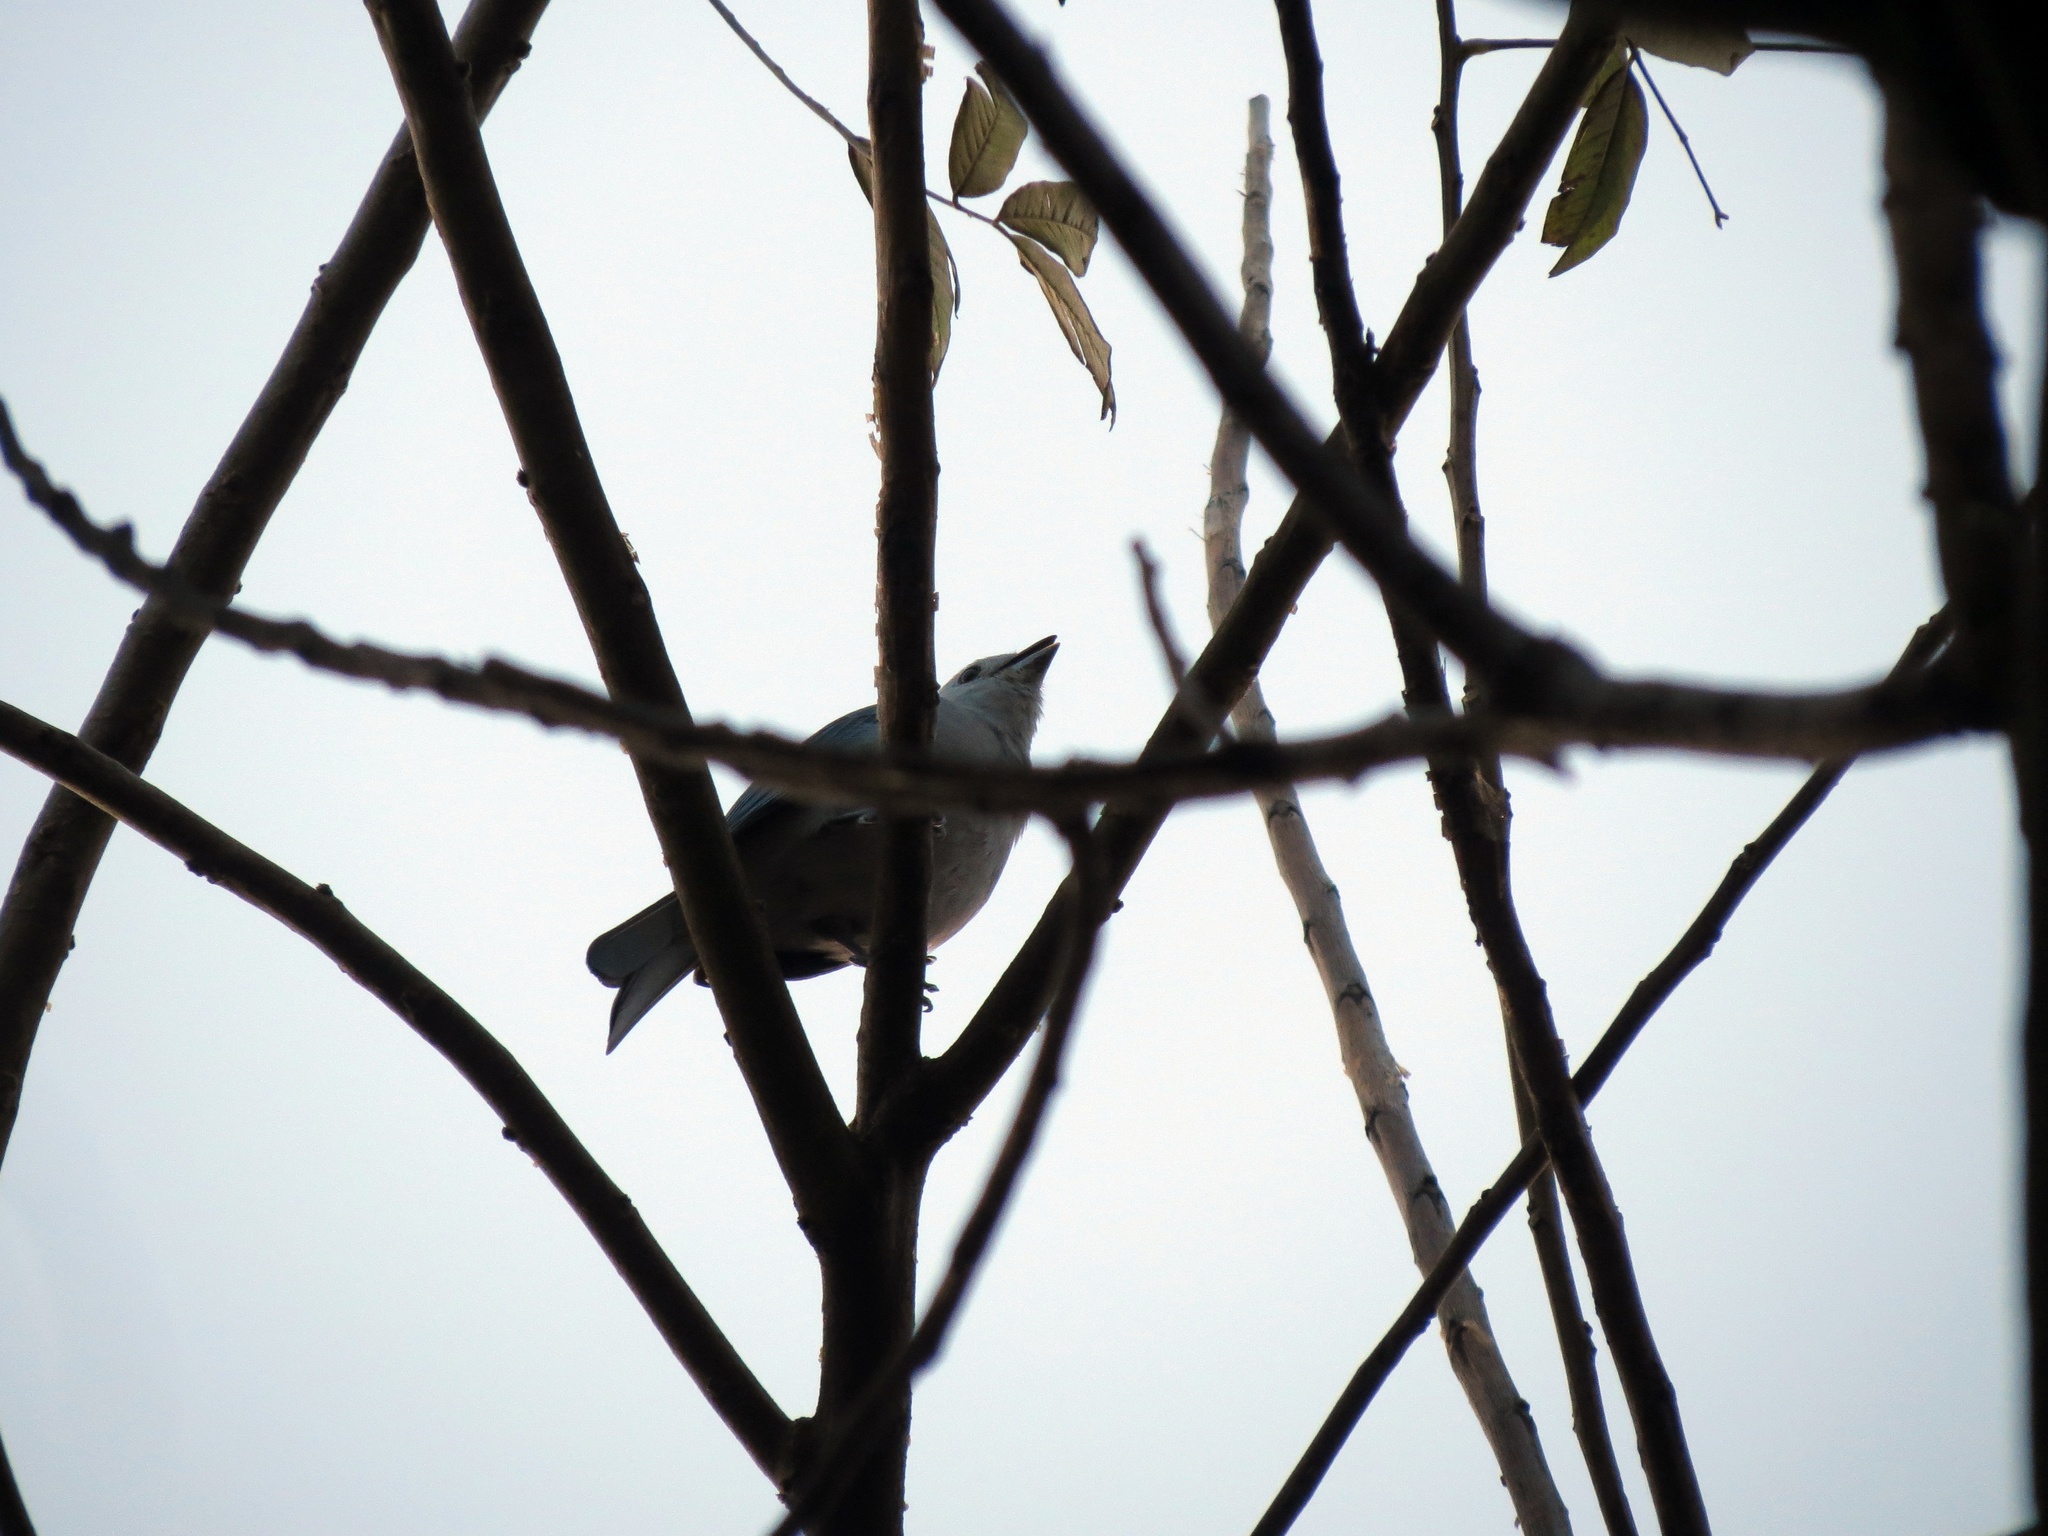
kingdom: Animalia
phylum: Chordata
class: Aves
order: Passeriformes
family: Thraupidae
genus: Thraupis
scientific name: Thraupis episcopus
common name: Blue-grey tanager
